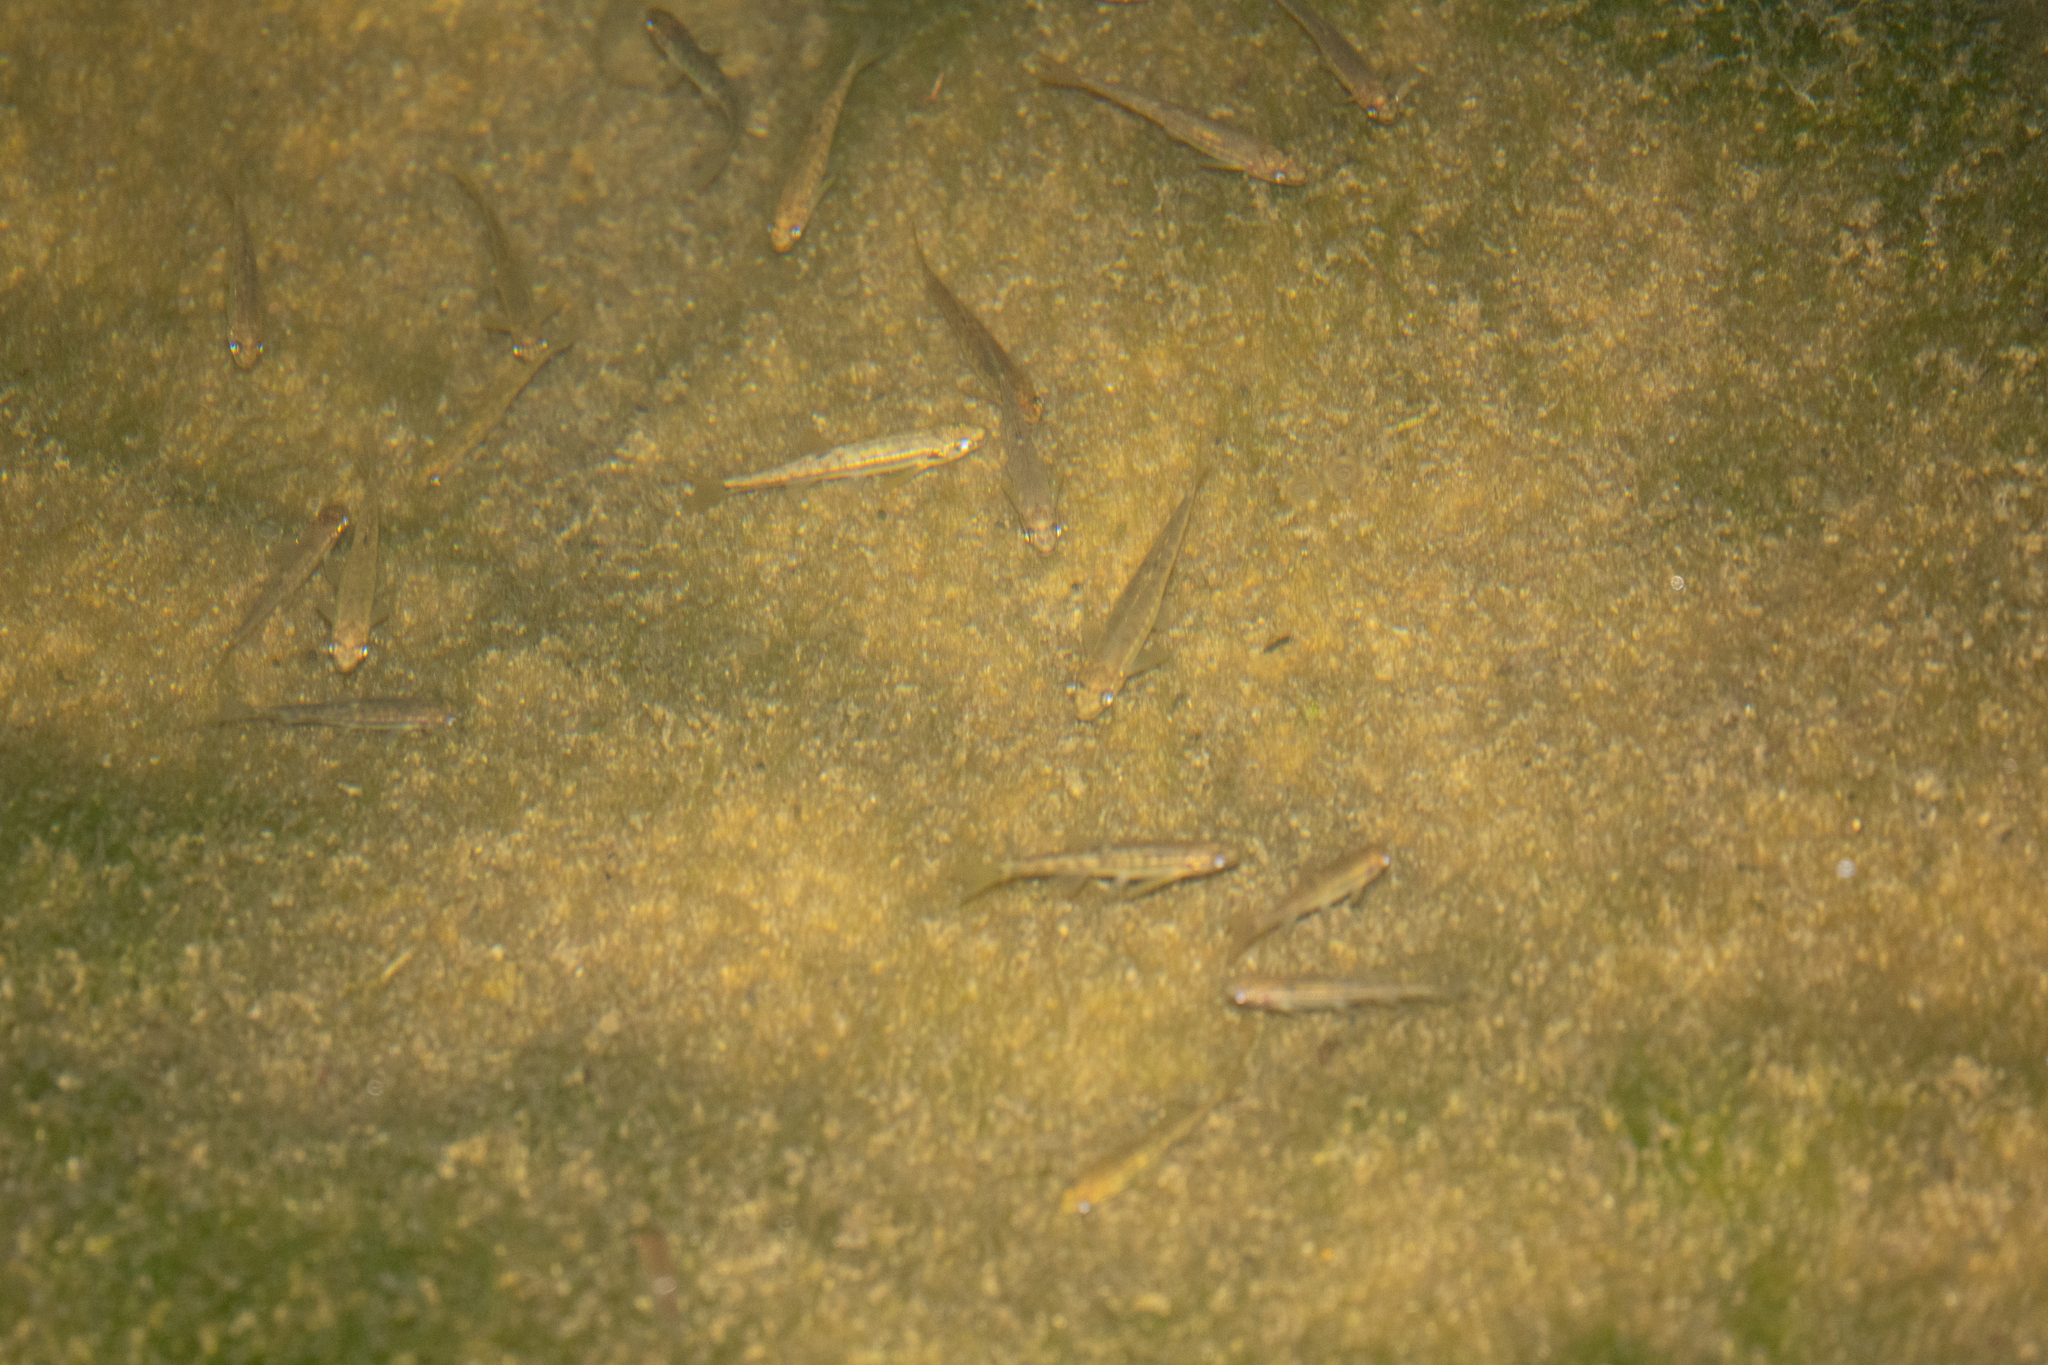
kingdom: Animalia
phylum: Chordata
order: Cypriniformes
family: Cyprinidae
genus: Phoxinus
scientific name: Phoxinus septimaniae
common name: Languedoc minnow
